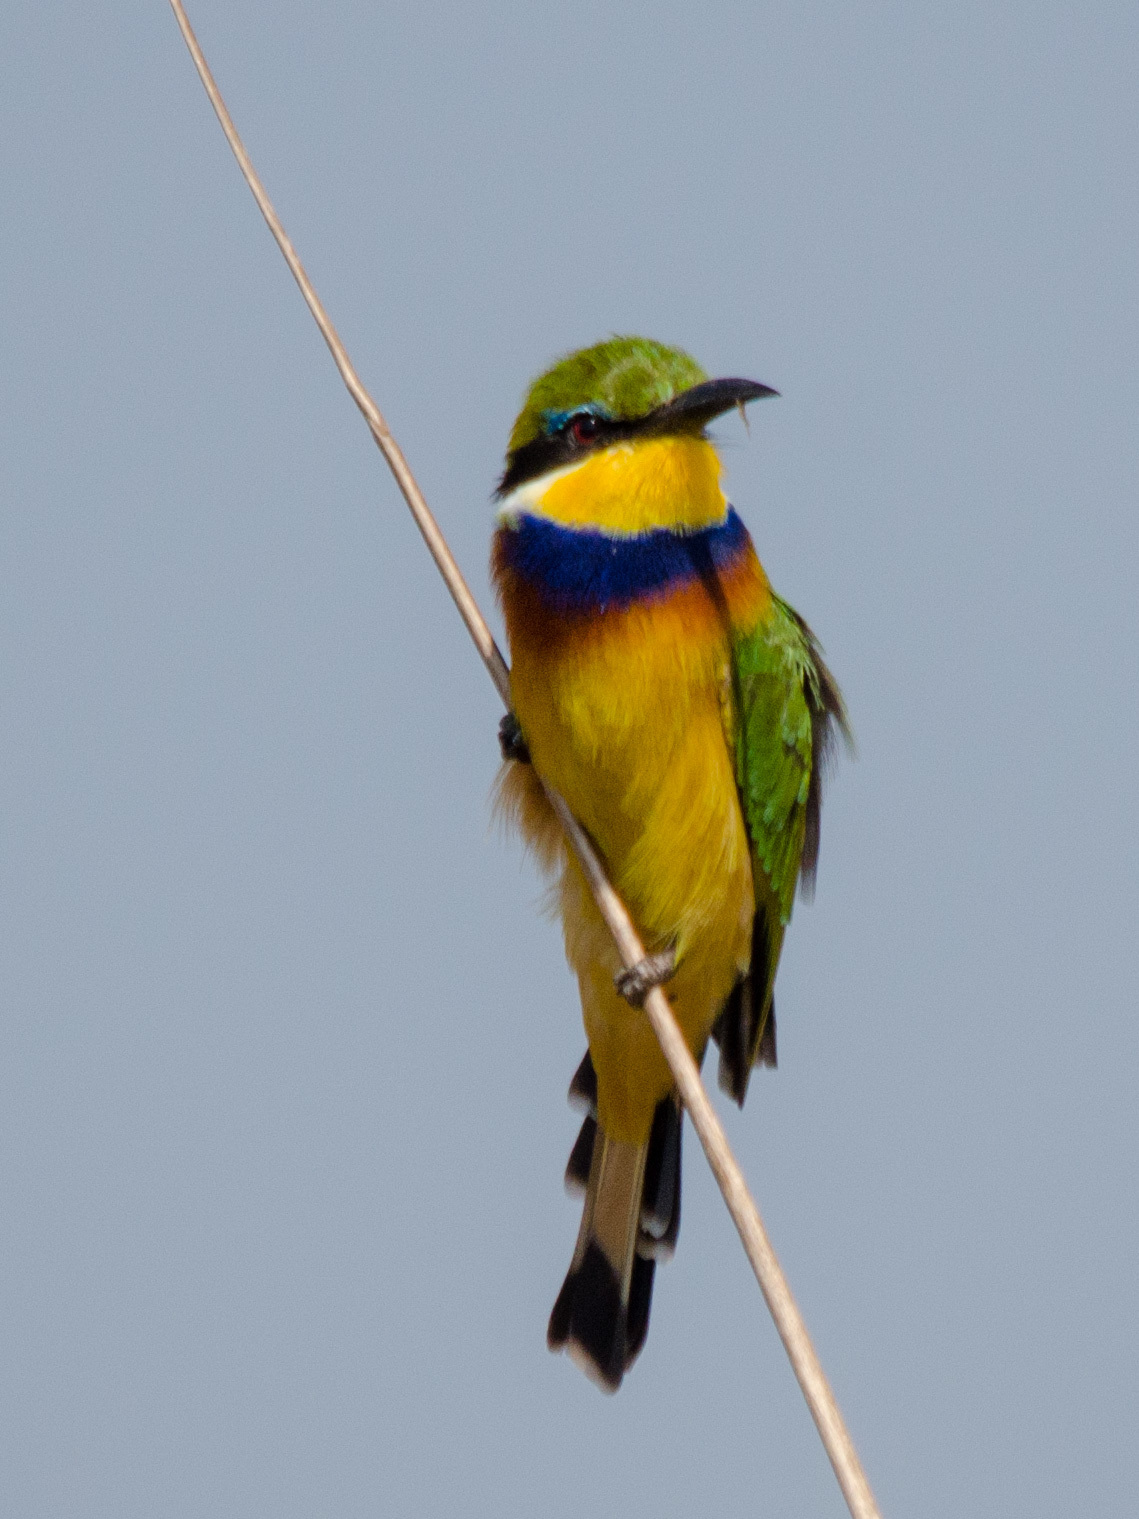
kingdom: Animalia
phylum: Chordata
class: Aves
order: Coraciiformes
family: Meropidae
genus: Merops
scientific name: Merops variegatus
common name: Blue-breasted bee-eater
